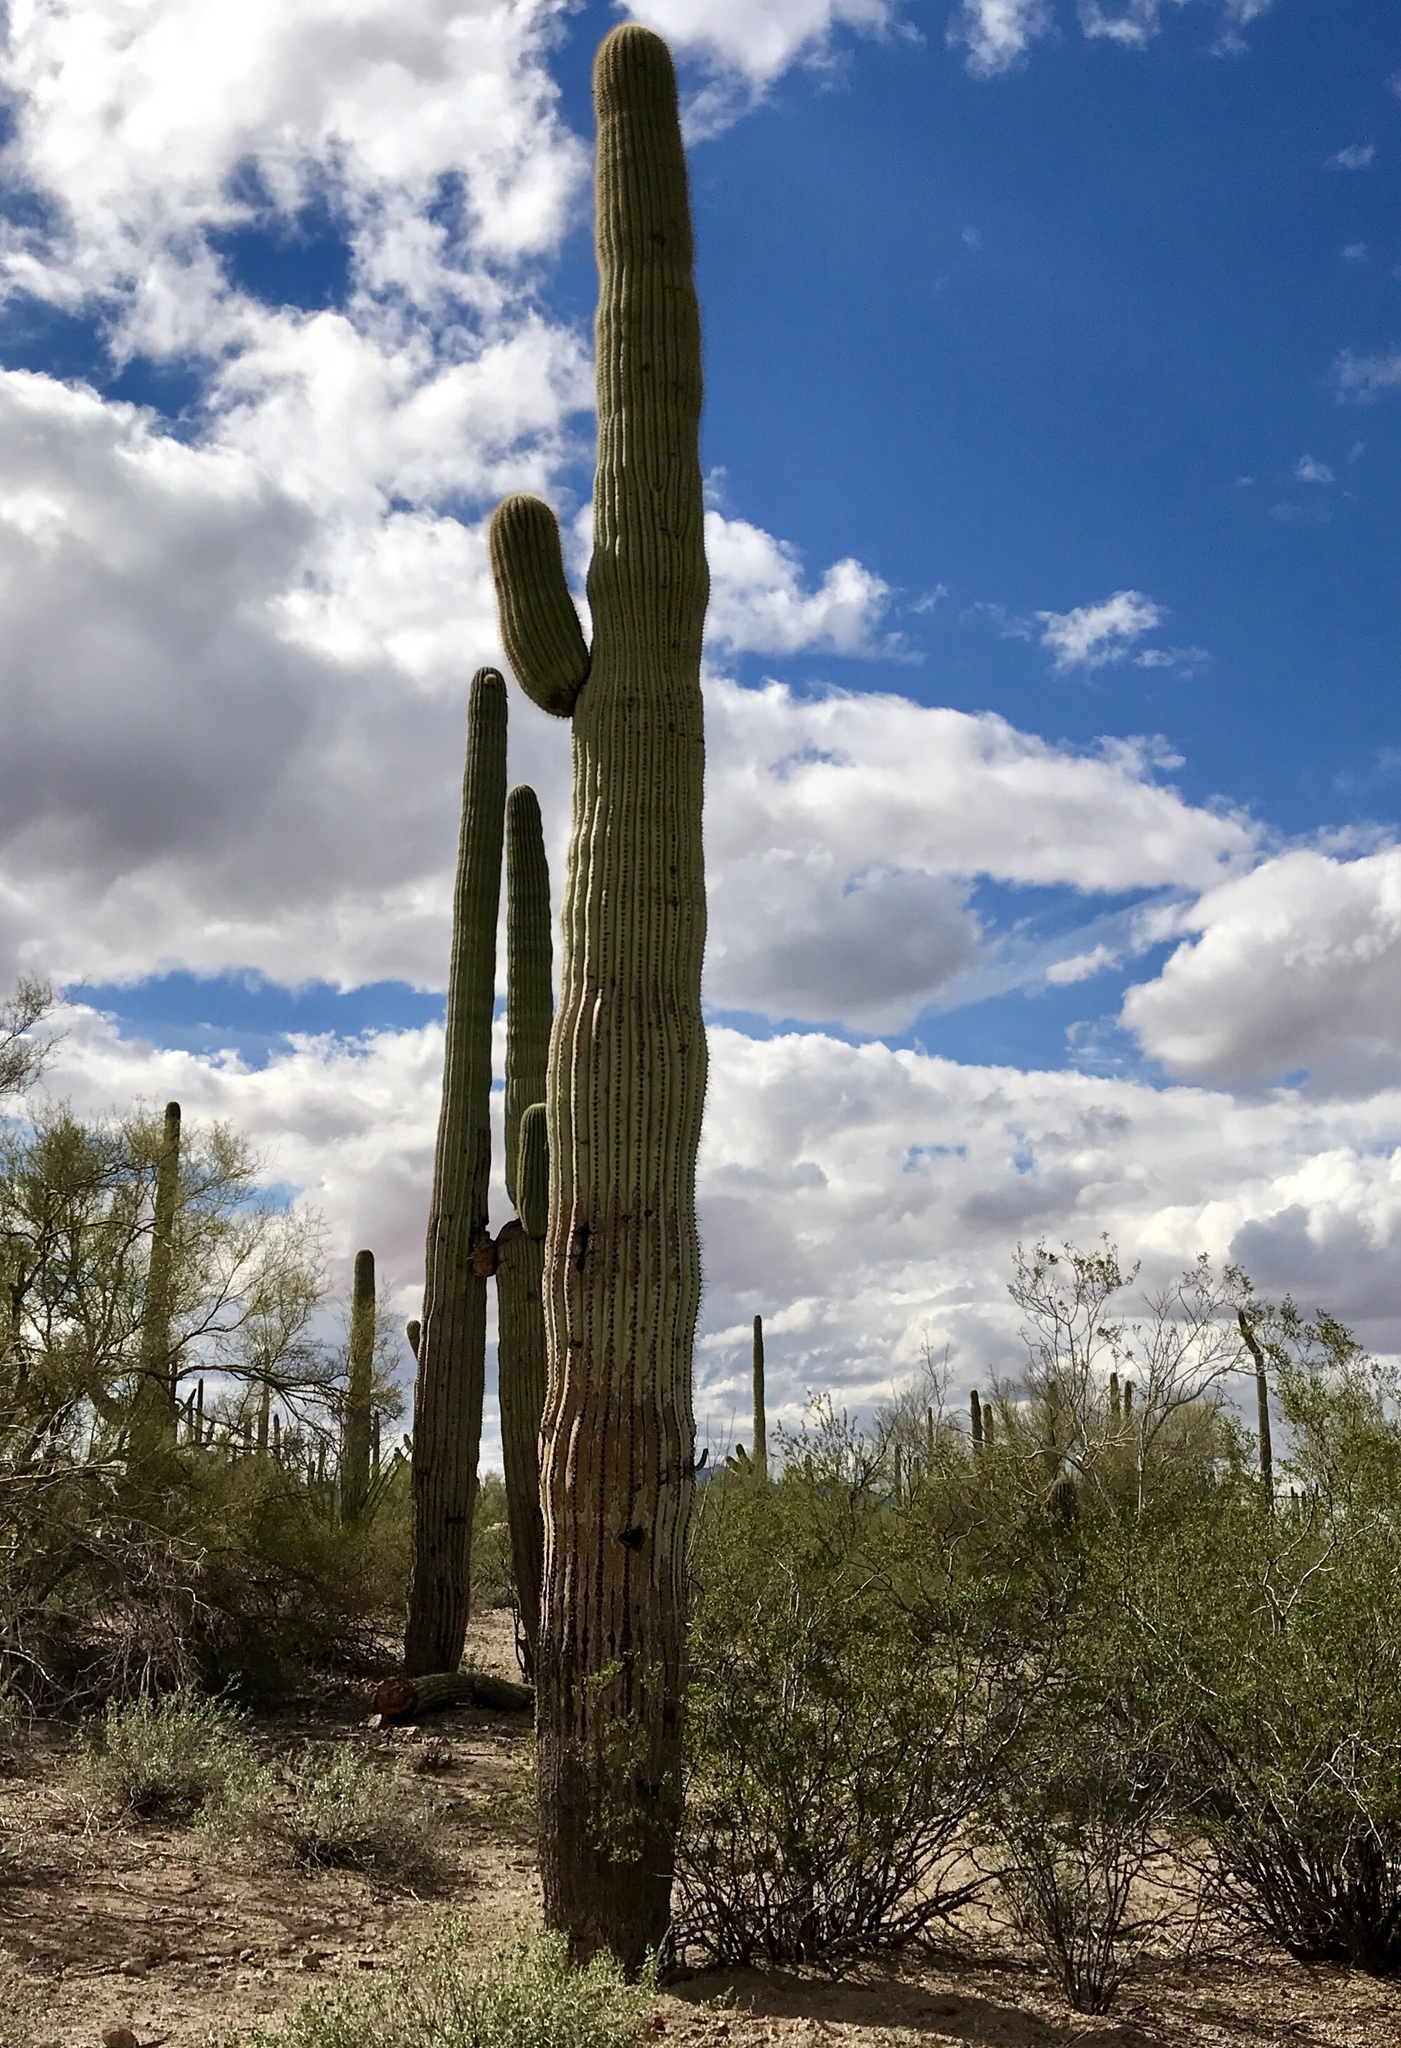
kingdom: Plantae
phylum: Tracheophyta
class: Magnoliopsida
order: Caryophyllales
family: Cactaceae
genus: Carnegiea
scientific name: Carnegiea gigantea
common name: Saguaro
